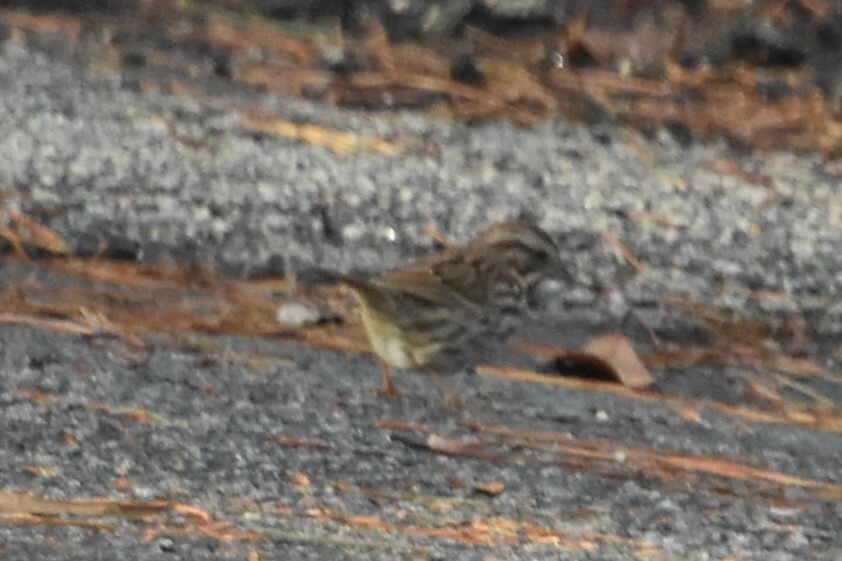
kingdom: Animalia
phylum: Chordata
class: Aves
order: Passeriformes
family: Passerellidae
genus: Melospiza
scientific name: Melospiza melodia
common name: Song sparrow
